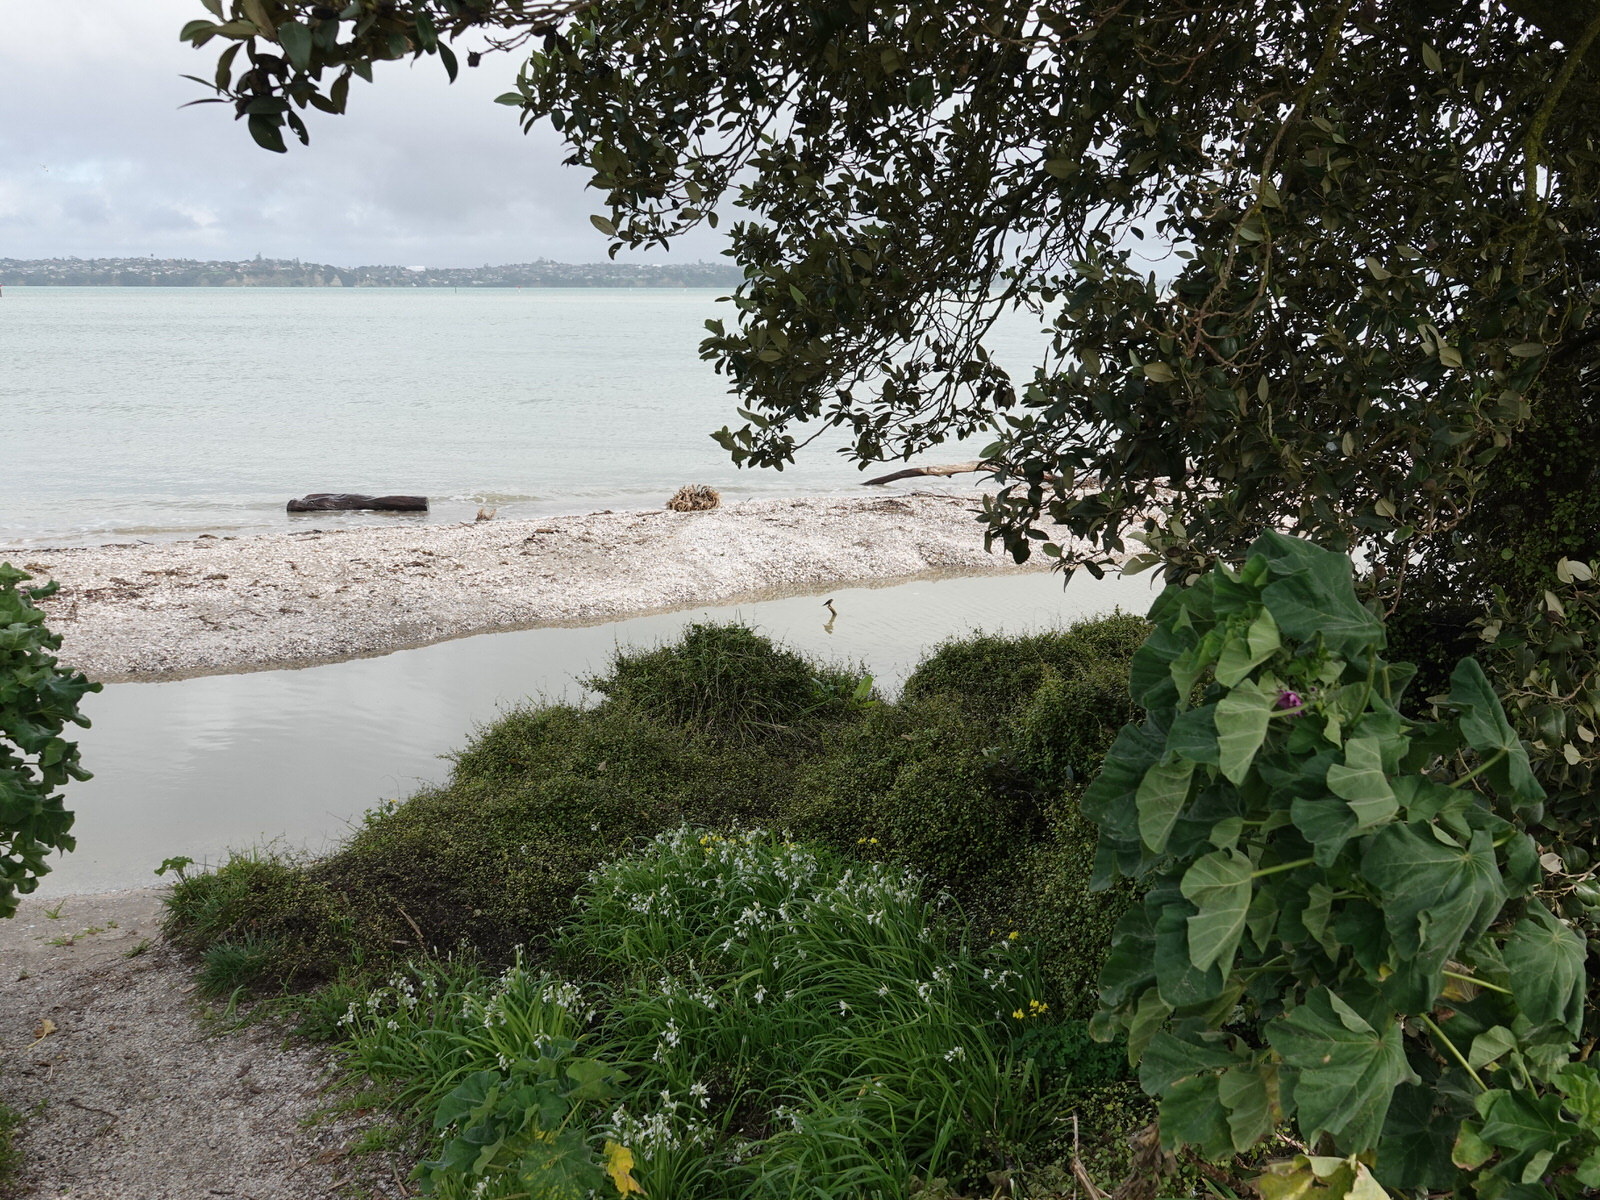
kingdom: Animalia
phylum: Chordata
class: Aves
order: Passeriformes
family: Hirundinidae
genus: Hirundo
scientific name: Hirundo neoxena
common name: Welcome swallow
